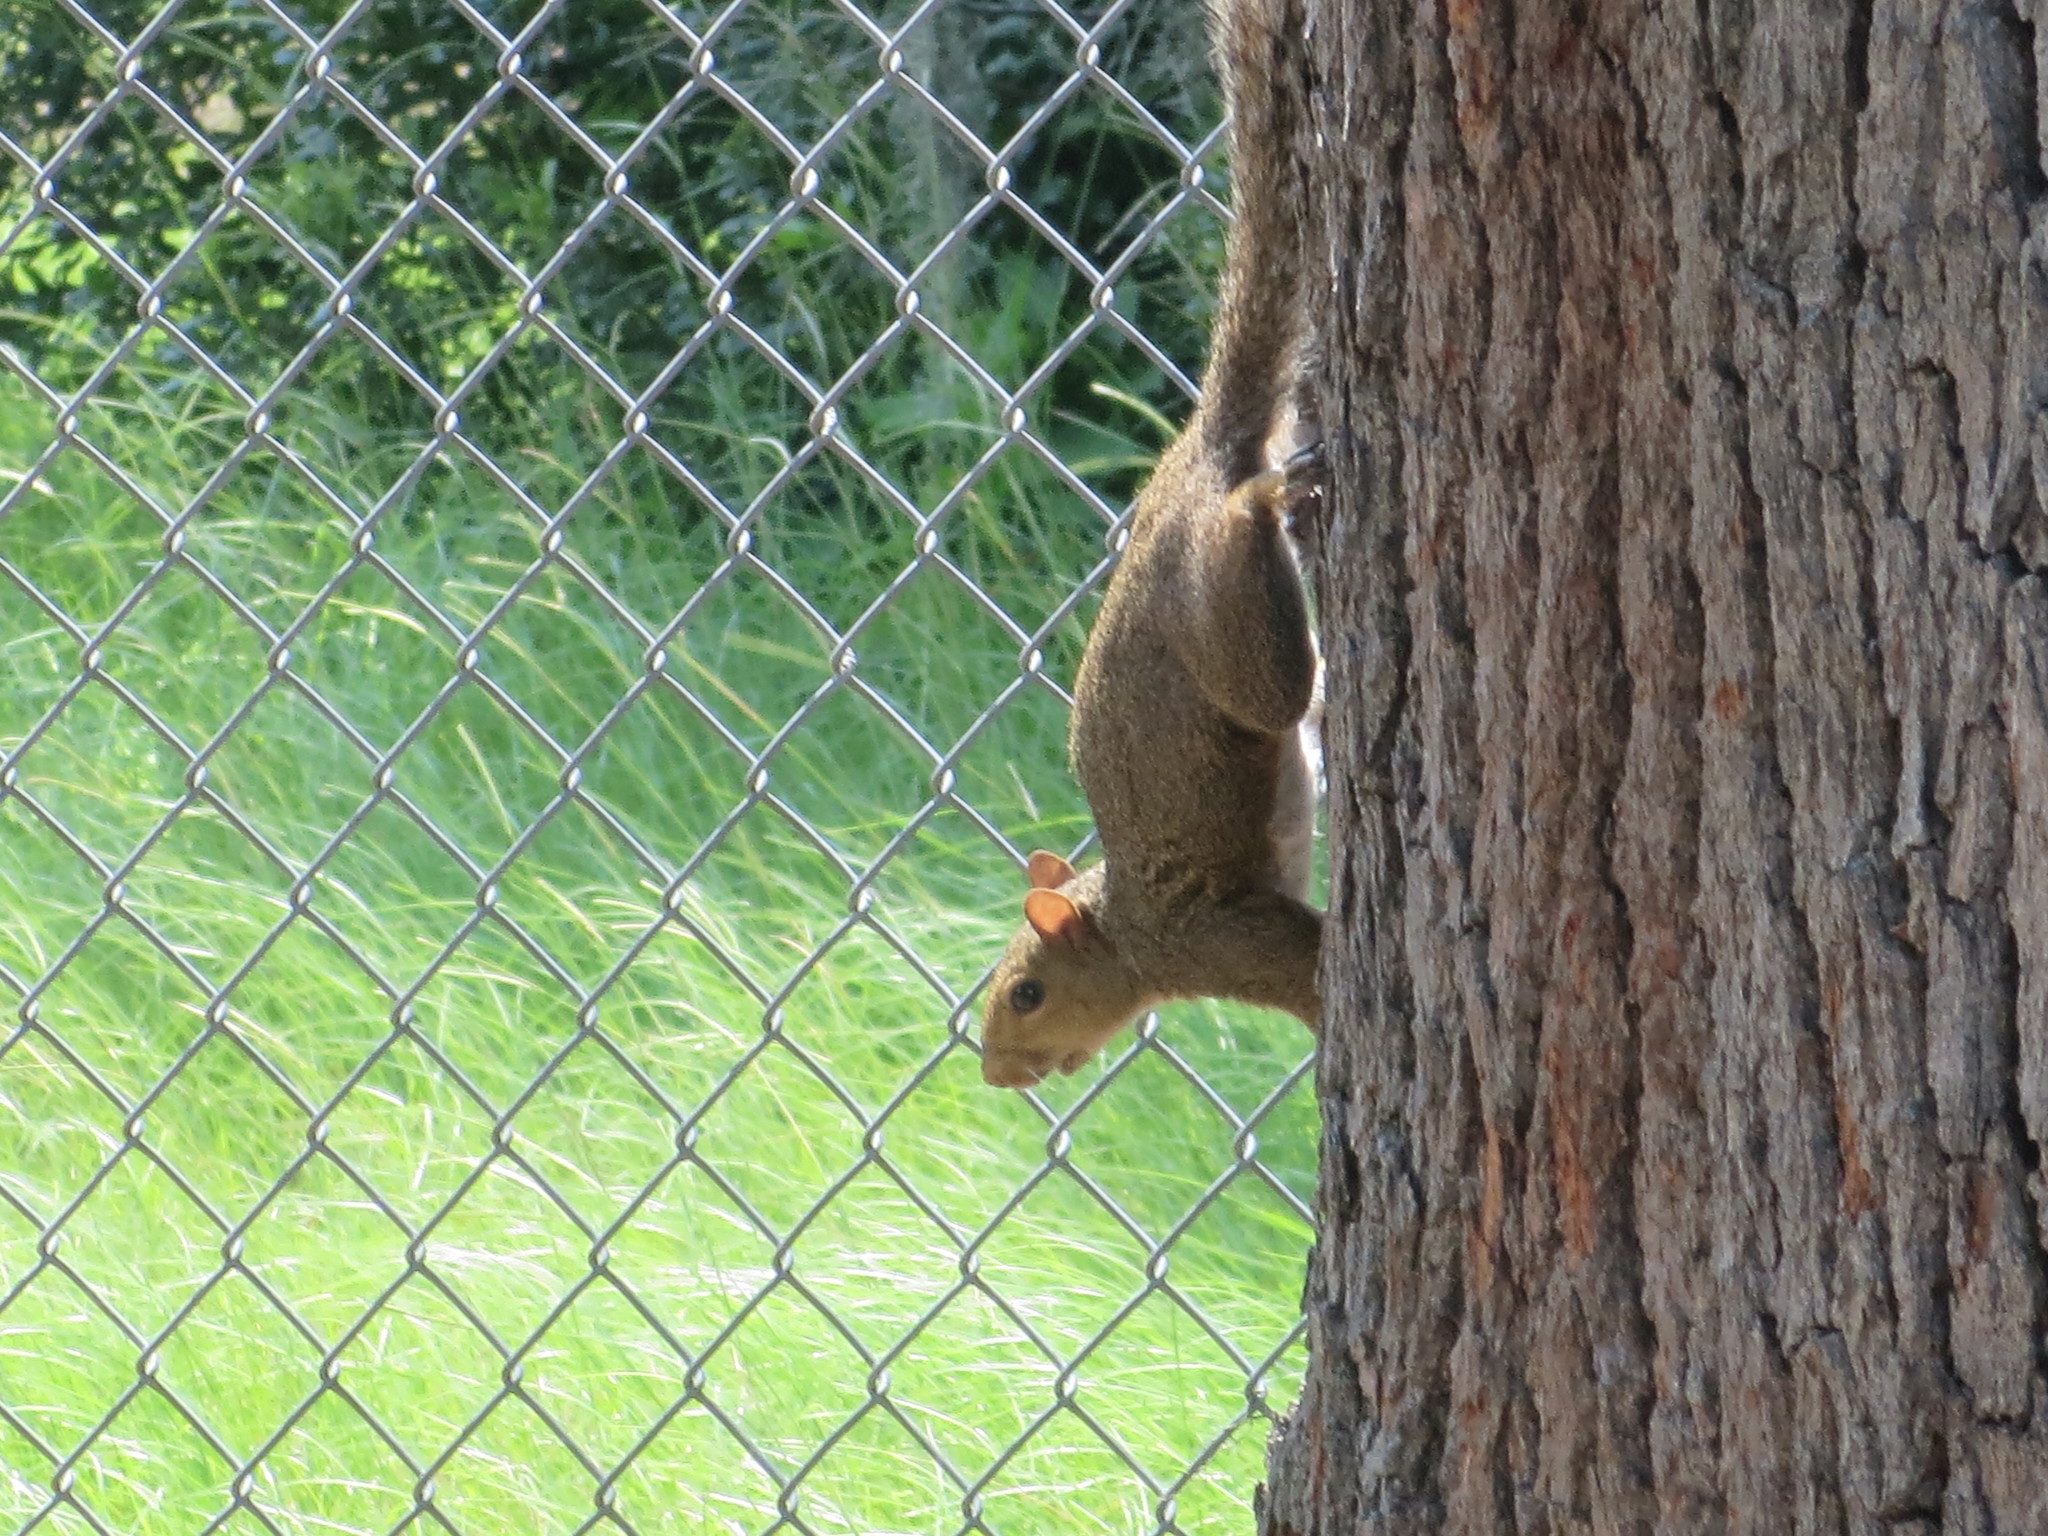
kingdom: Animalia
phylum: Chordata
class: Mammalia
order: Rodentia
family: Sciuridae
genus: Sciurus
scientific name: Sciurus carolinensis
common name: Eastern gray squirrel
